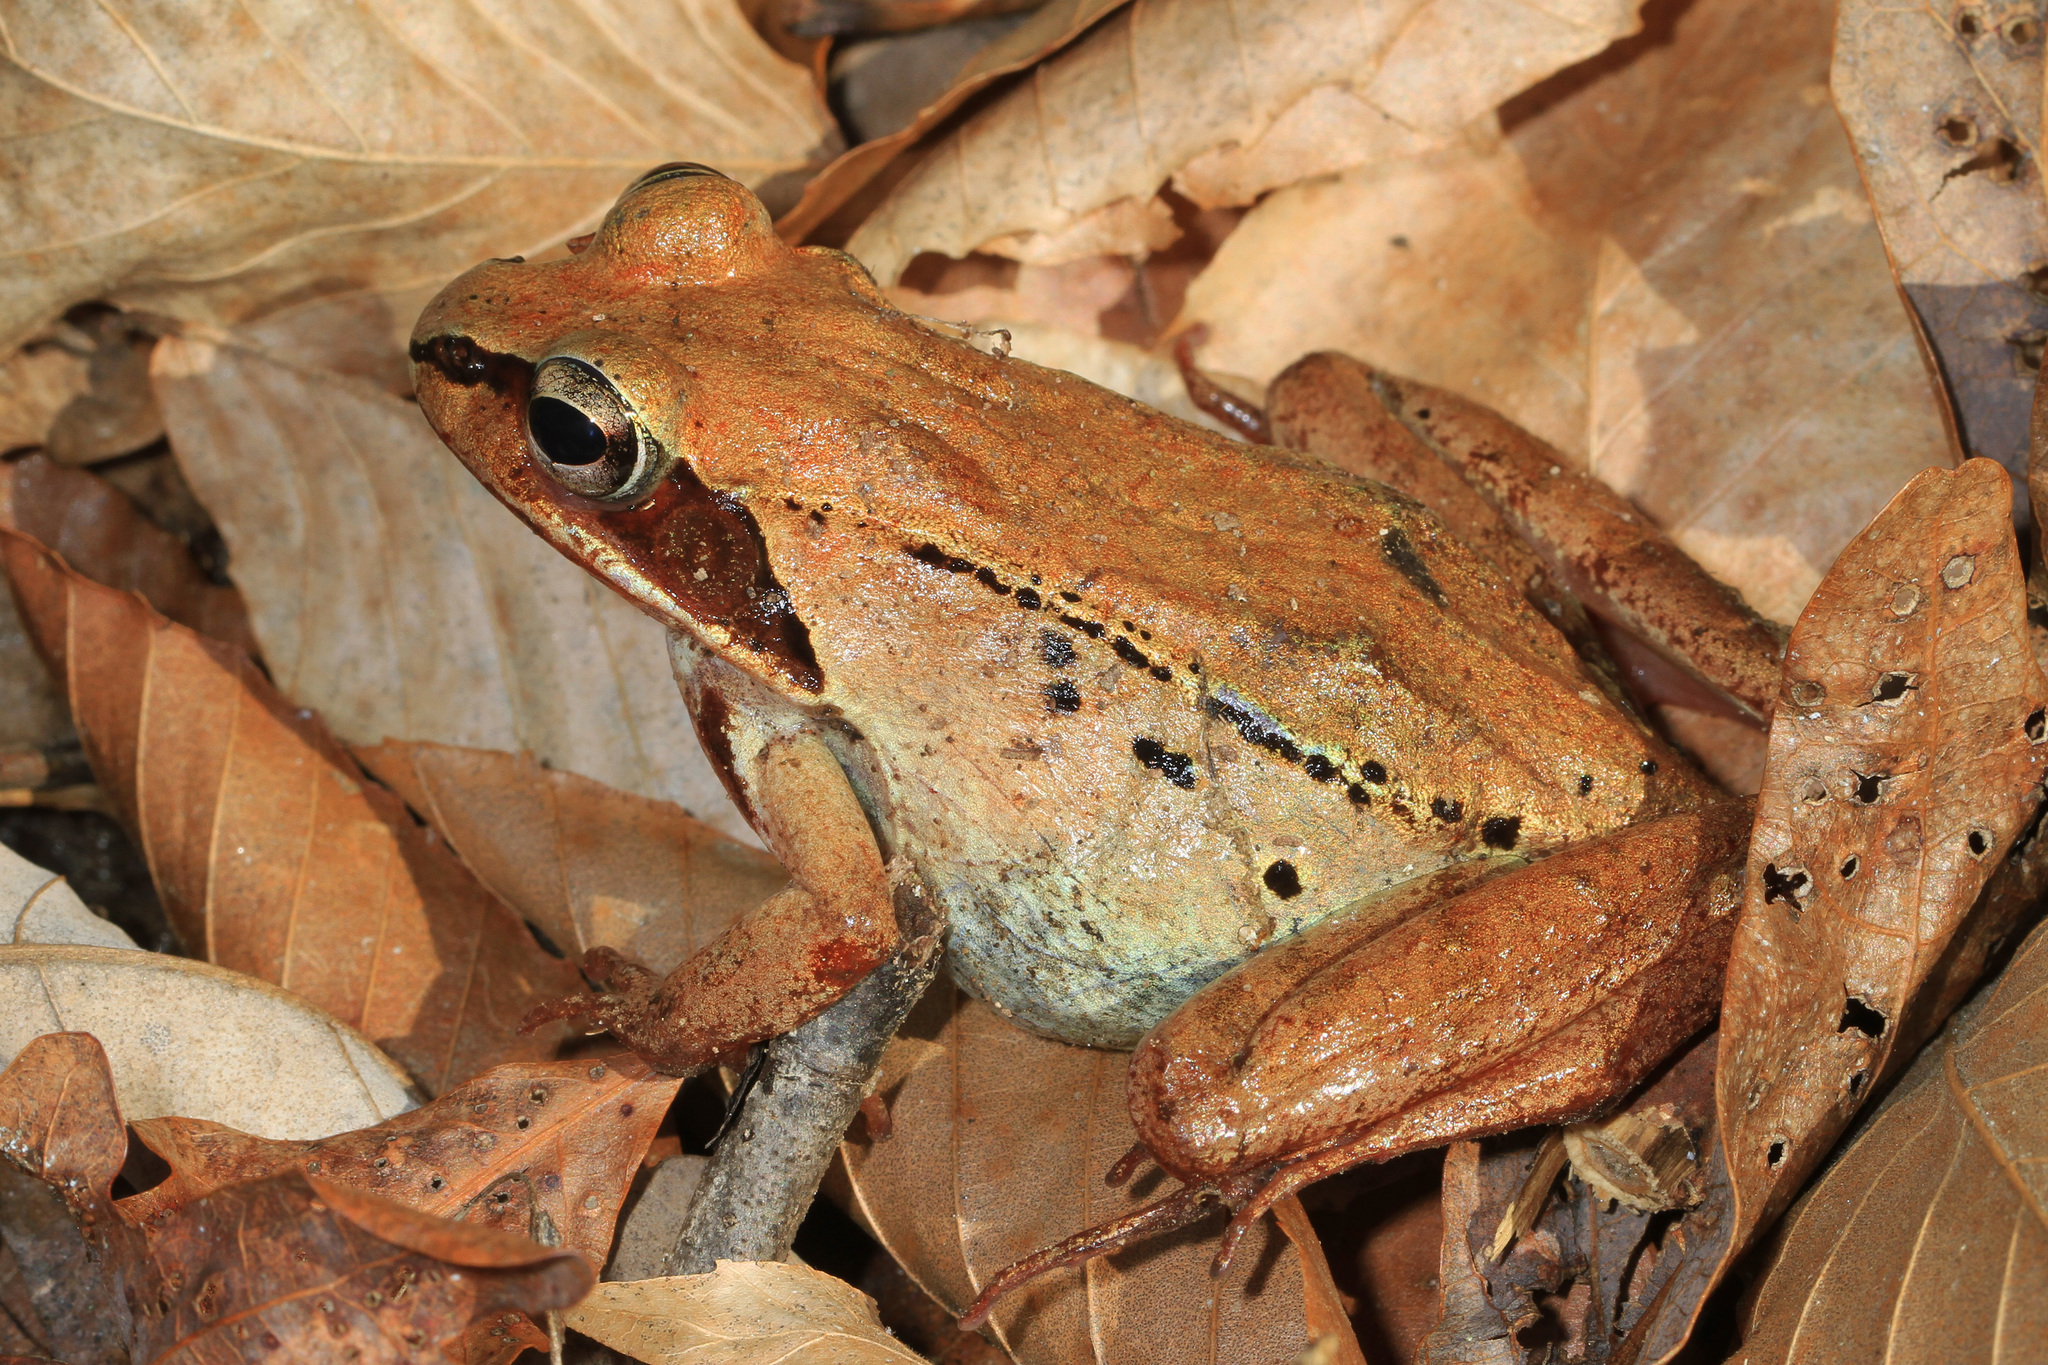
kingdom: Animalia
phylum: Chordata
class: Amphibia
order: Anura
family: Ranidae
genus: Lithobates
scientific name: Lithobates sylvaticus
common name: Wood frog
